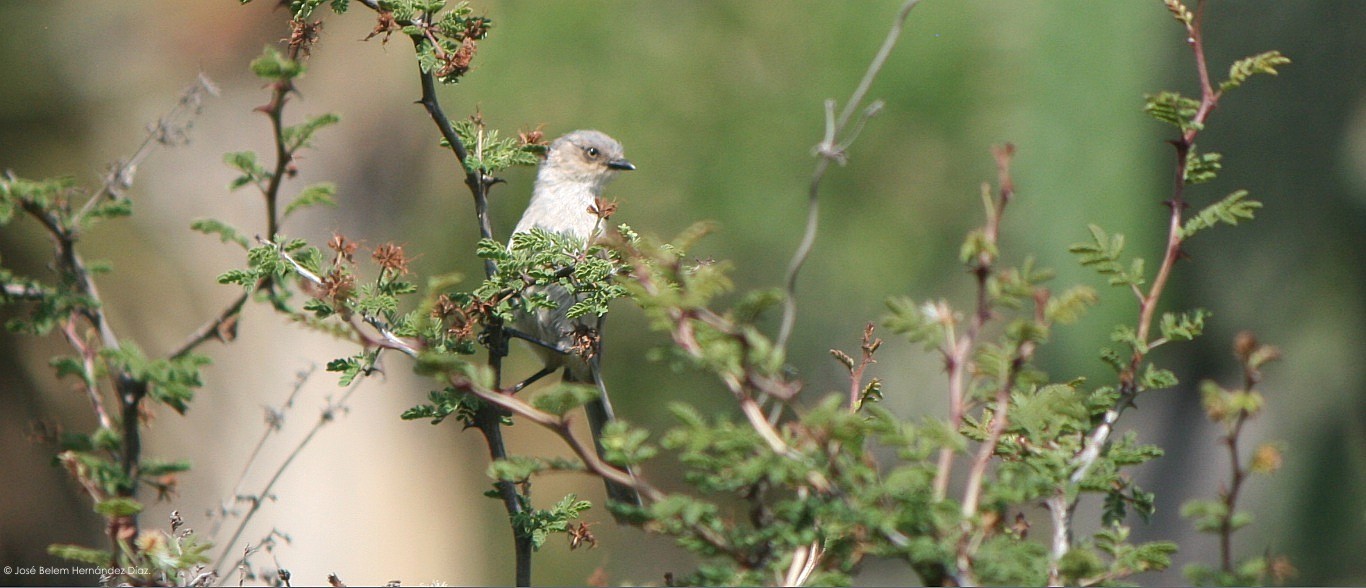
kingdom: Animalia
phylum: Chordata
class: Aves
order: Passeriformes
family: Aegithalidae
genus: Psaltriparus
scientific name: Psaltriparus minimus
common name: American bushtit
